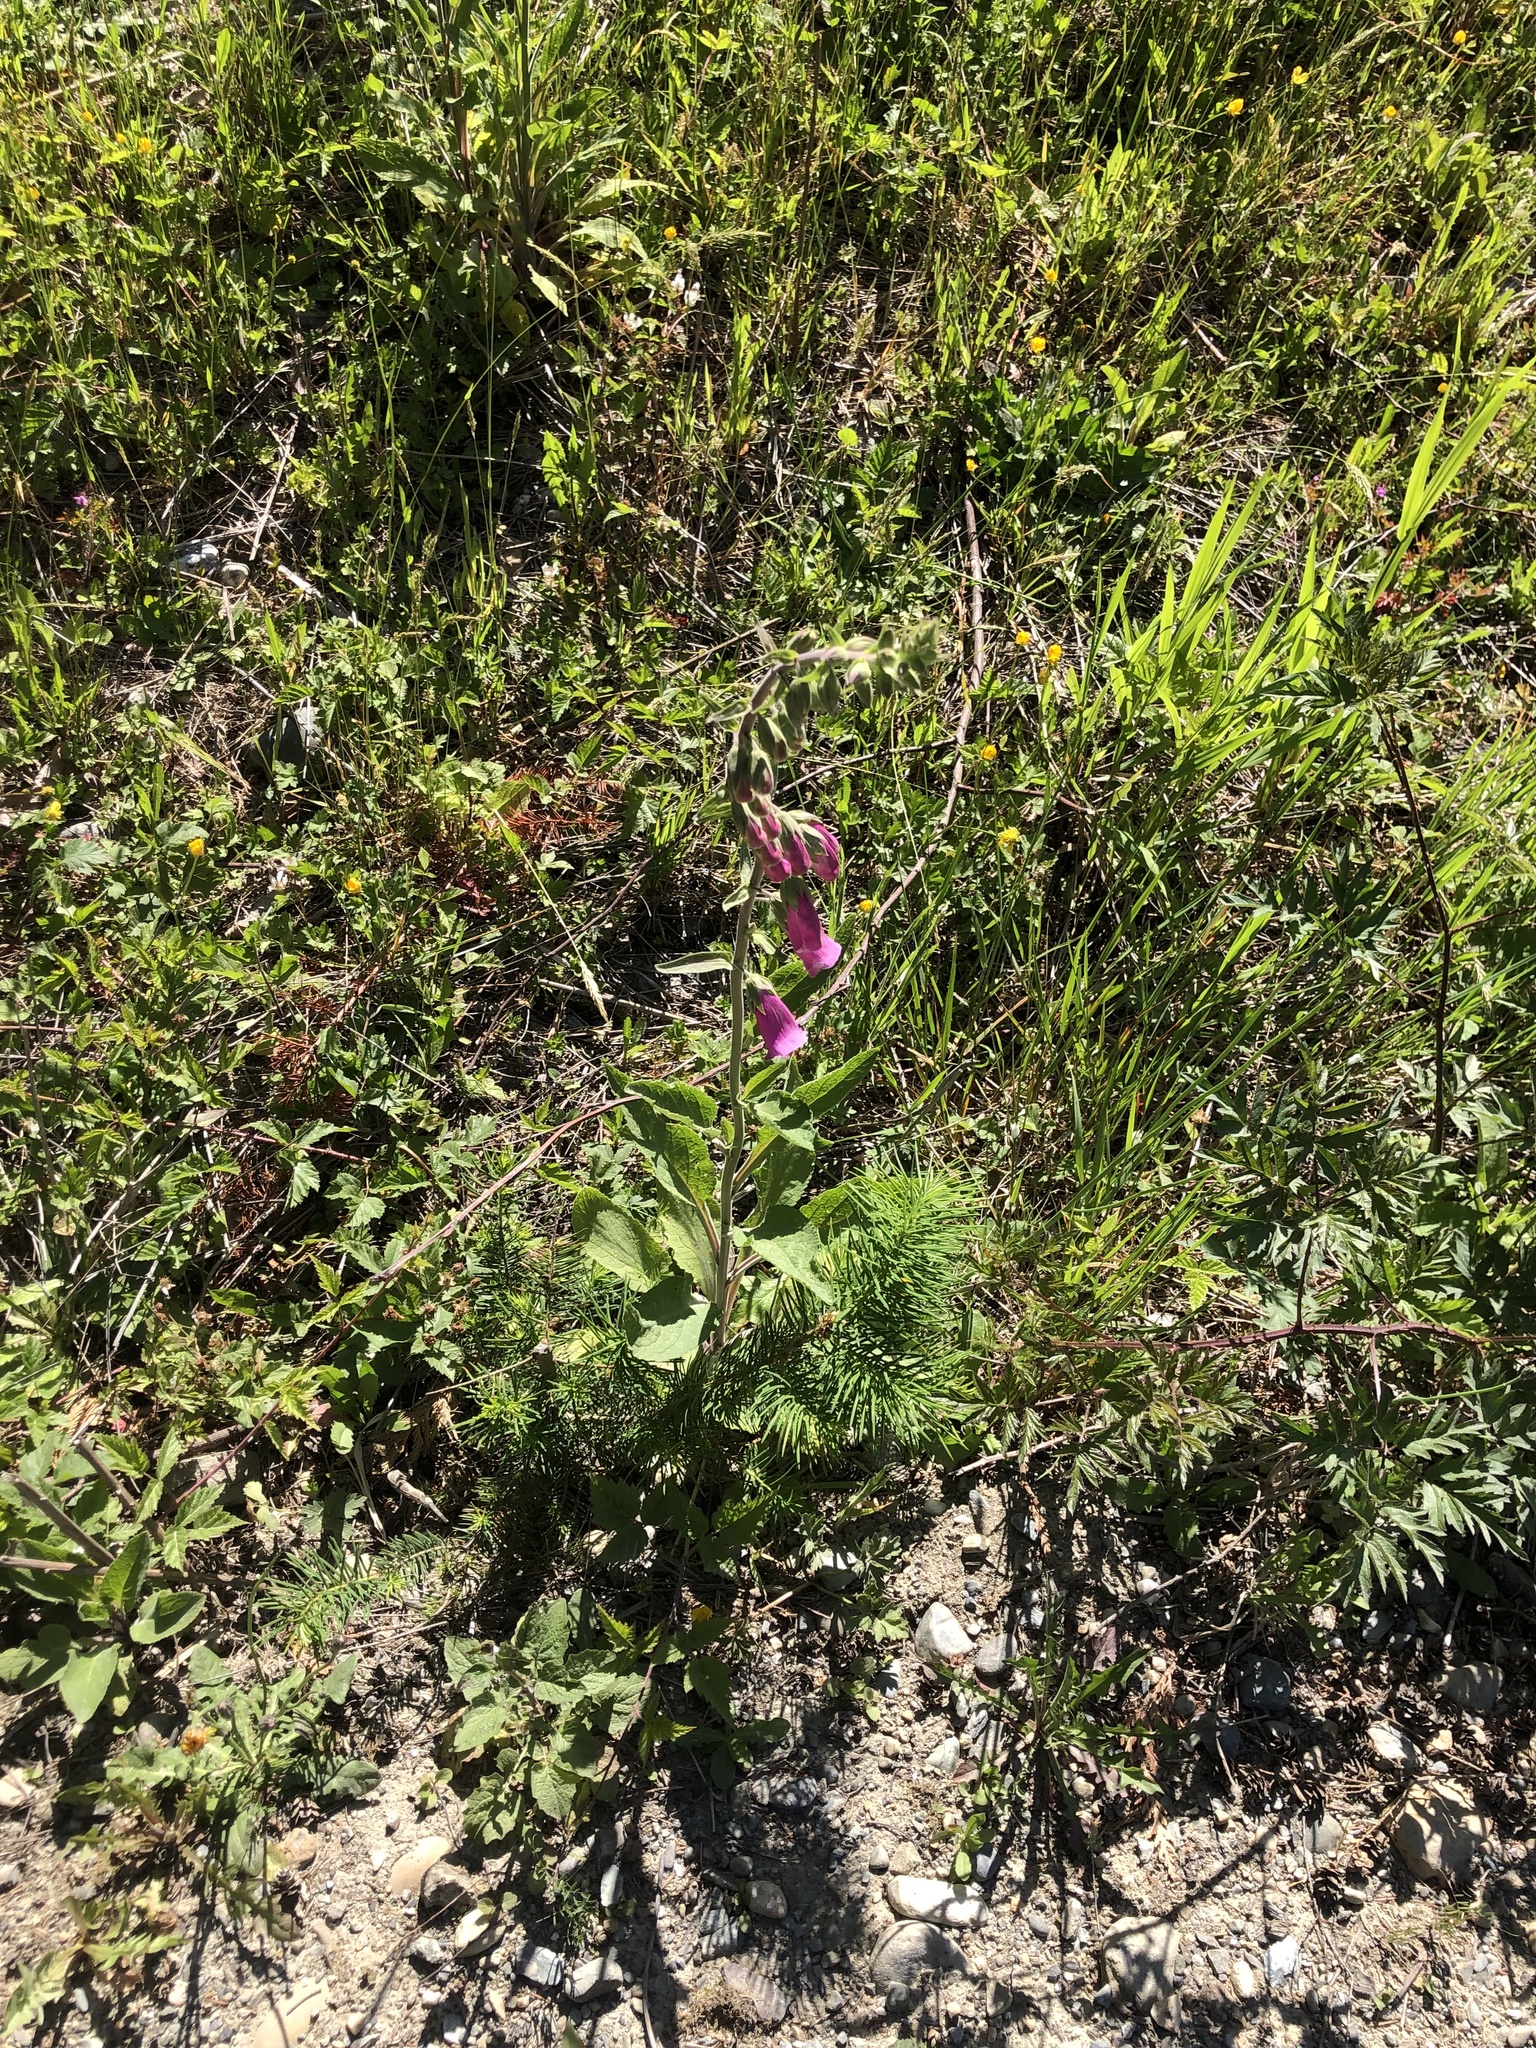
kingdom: Plantae
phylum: Tracheophyta
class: Magnoliopsida
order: Lamiales
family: Plantaginaceae
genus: Digitalis
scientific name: Digitalis purpurea
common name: Foxglove
